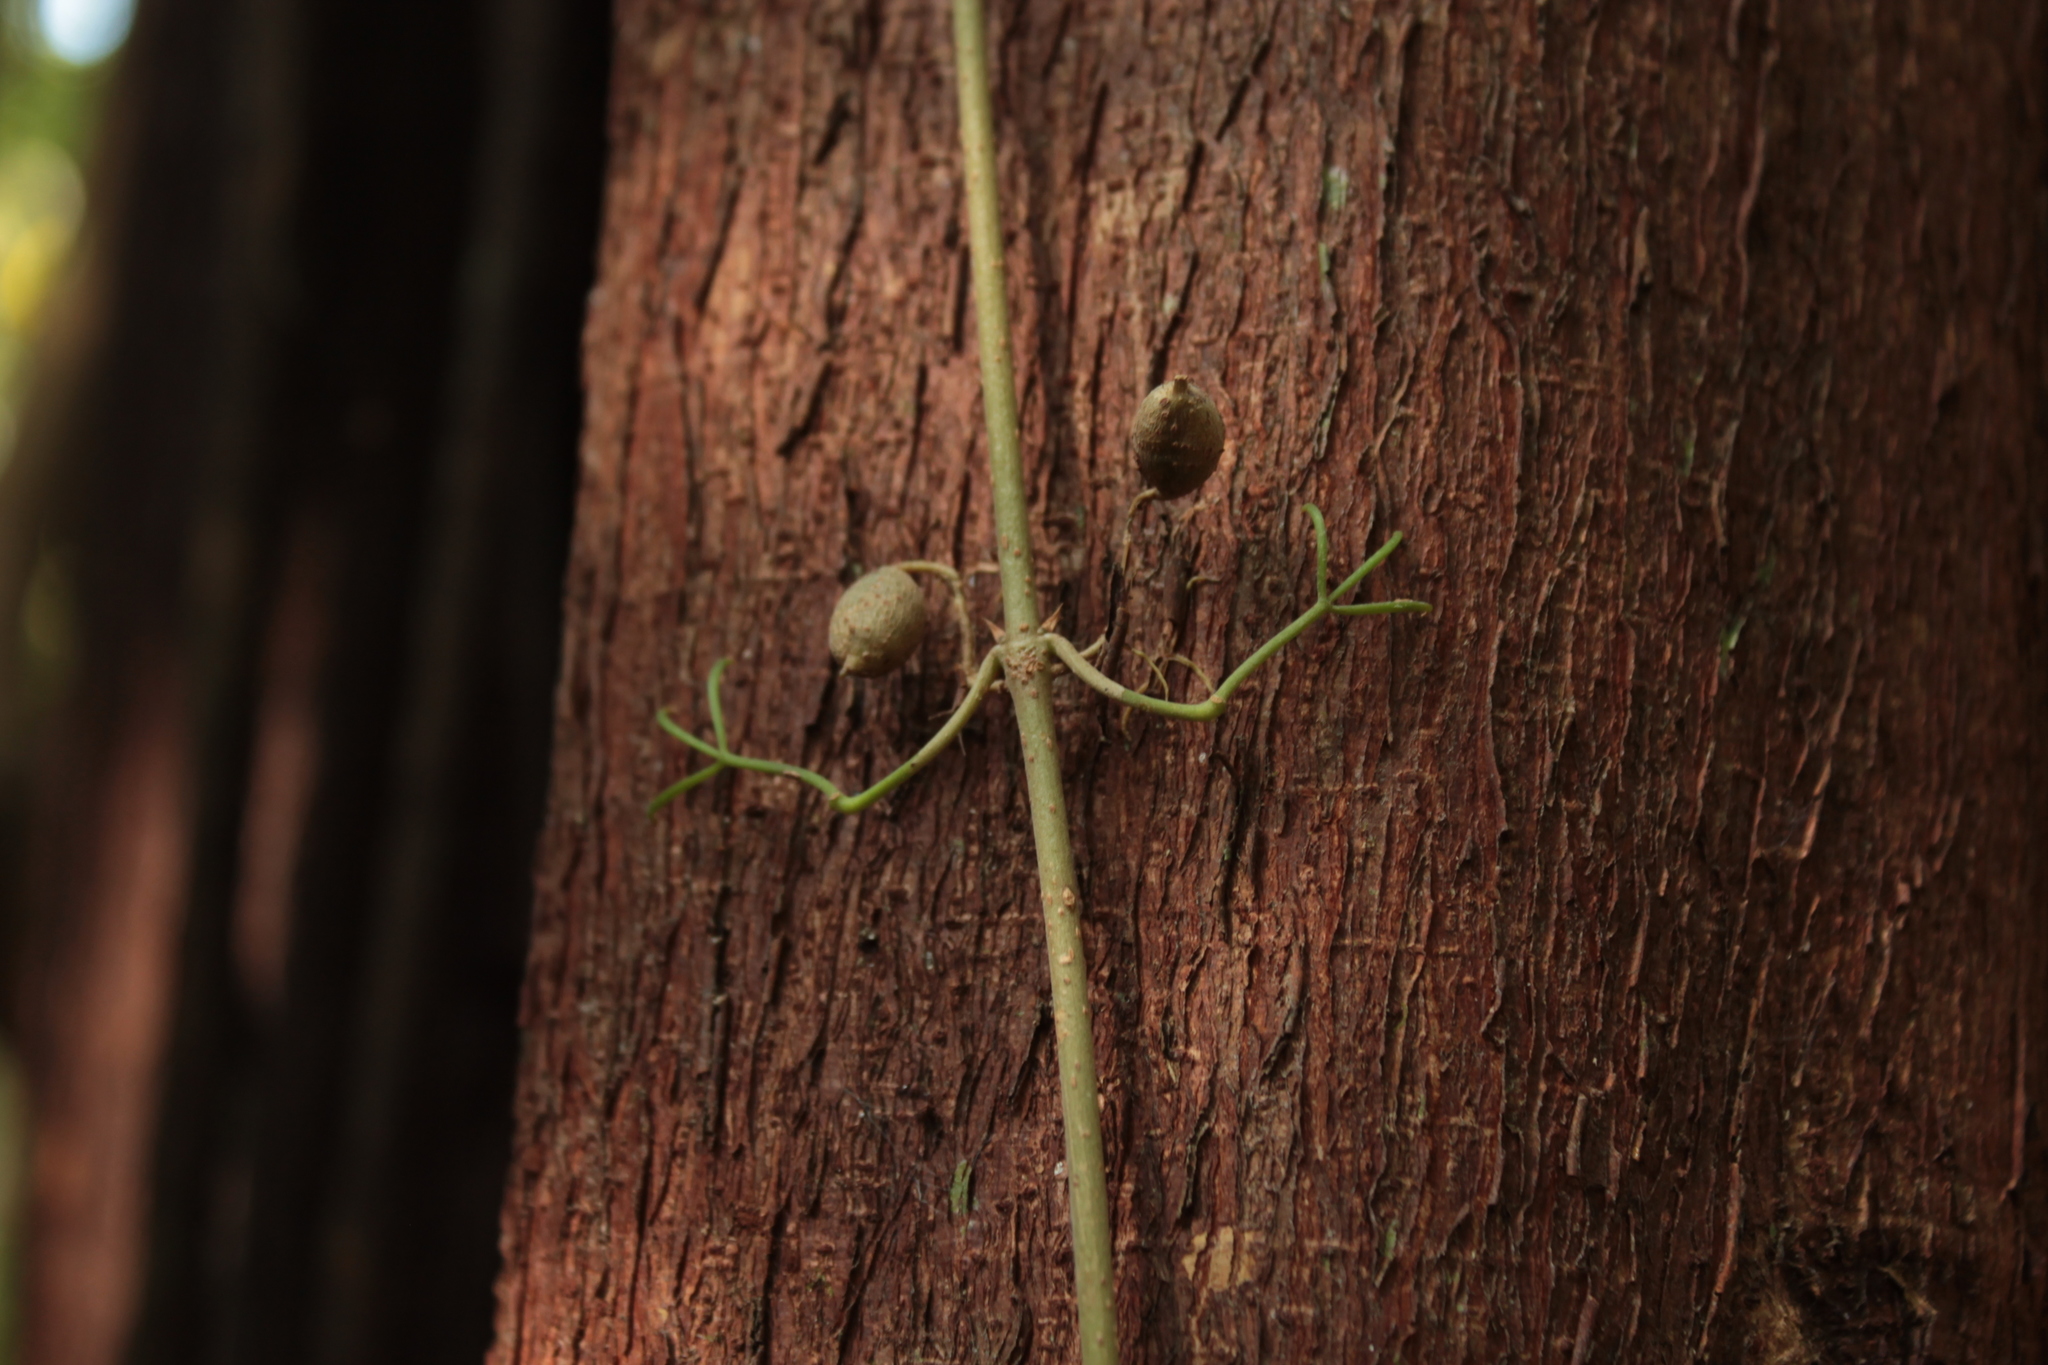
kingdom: Plantae
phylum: Tracheophyta
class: Magnoliopsida
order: Lamiales
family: Bignoniaceae
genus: Dolichandra
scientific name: Dolichandra unguis-cati
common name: Catclaw vine
